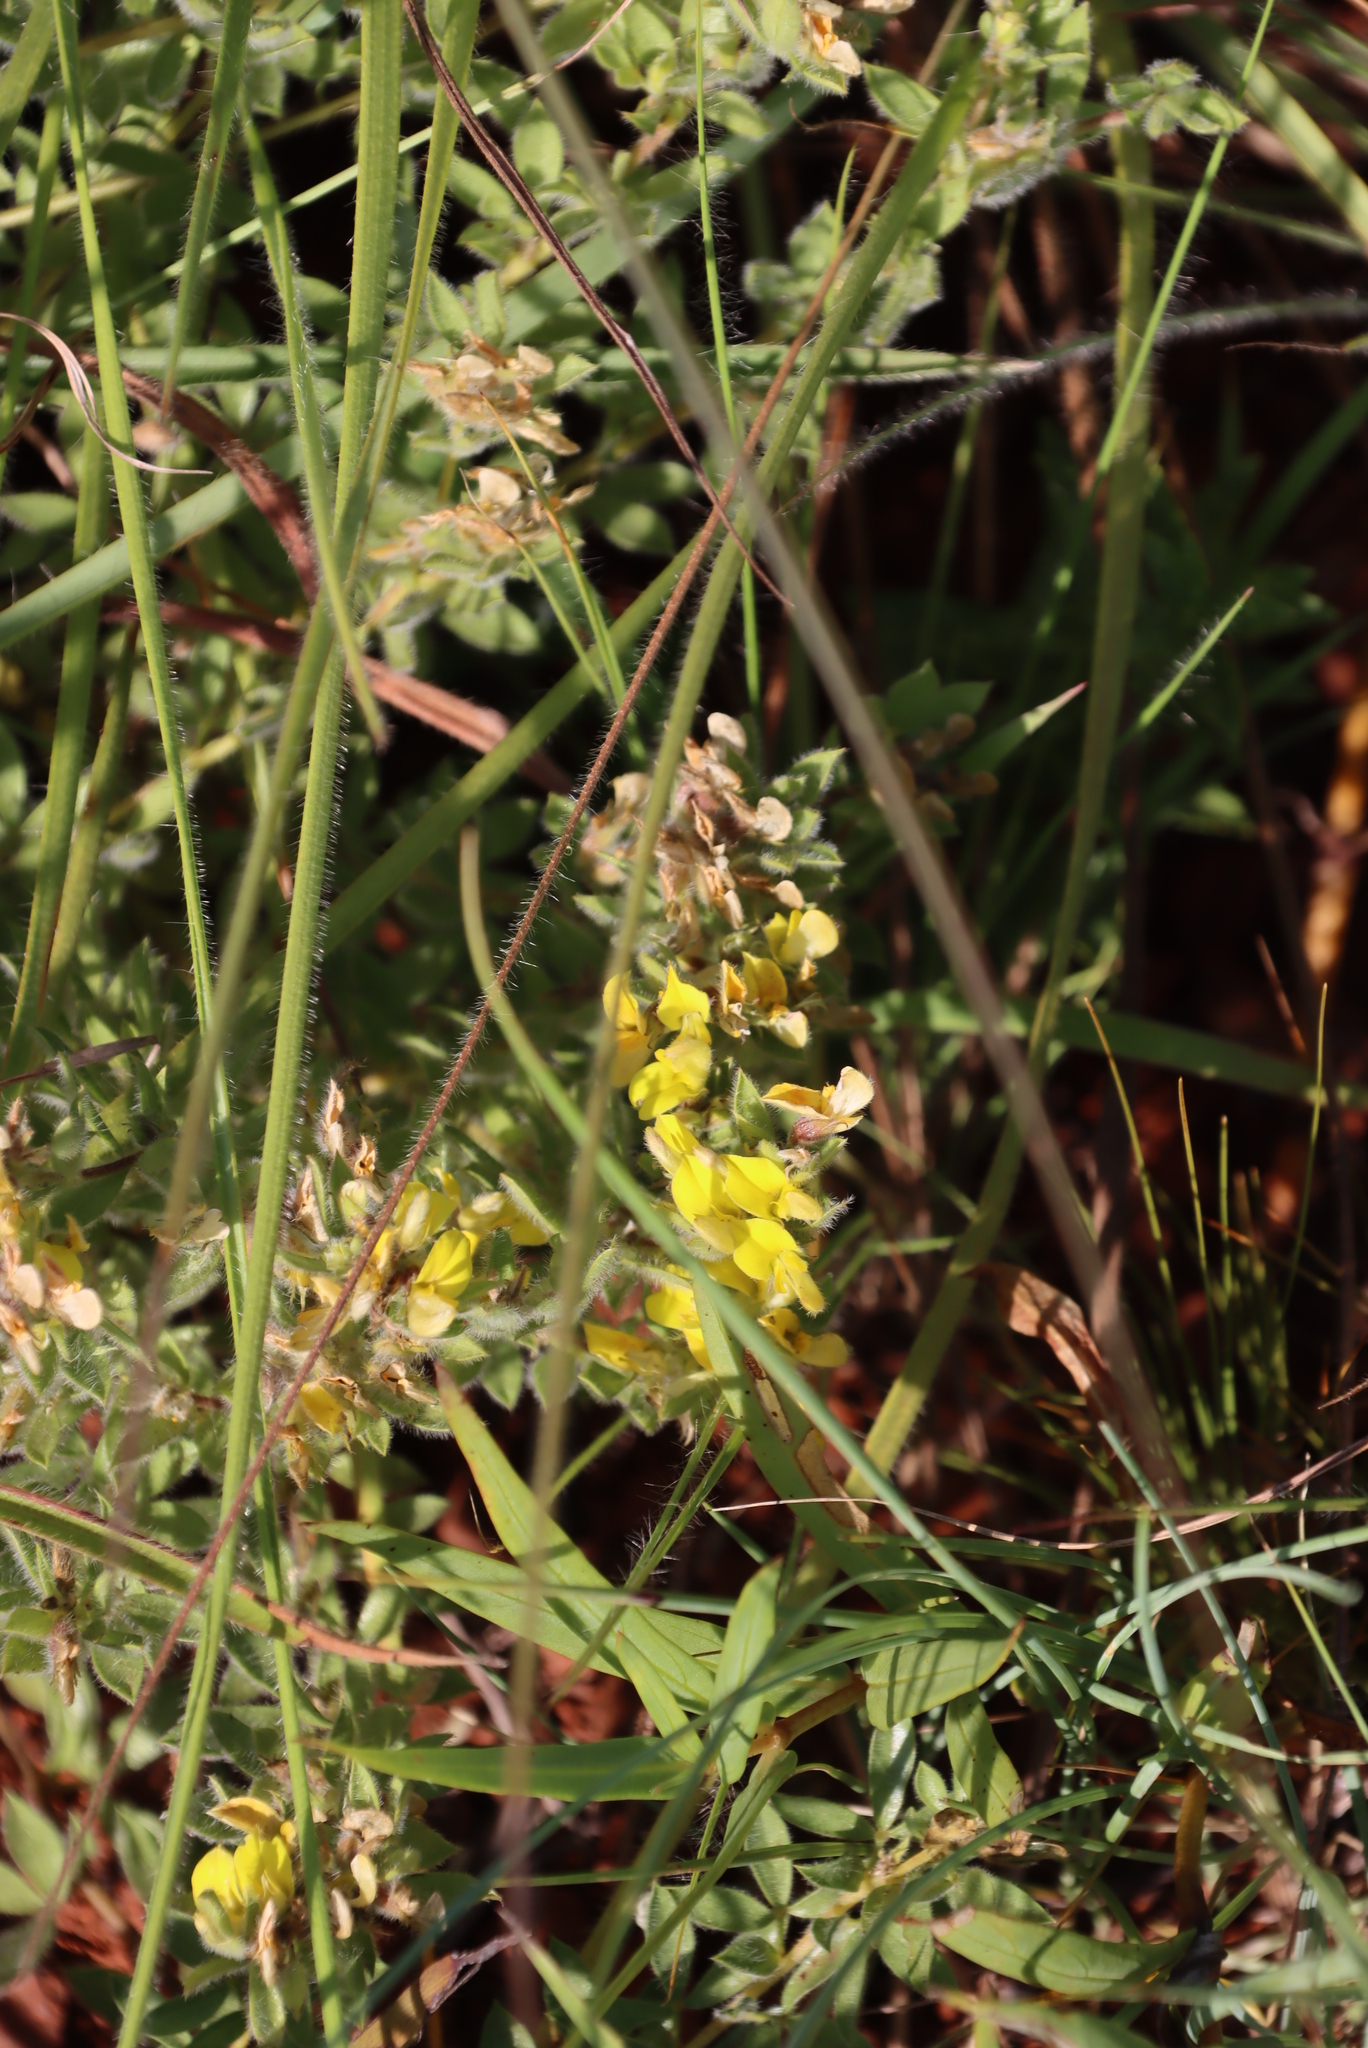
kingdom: Plantae
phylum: Tracheophyta
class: Magnoliopsida
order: Fabales
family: Fabaceae
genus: Leobordea
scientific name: Leobordea corymbosa
